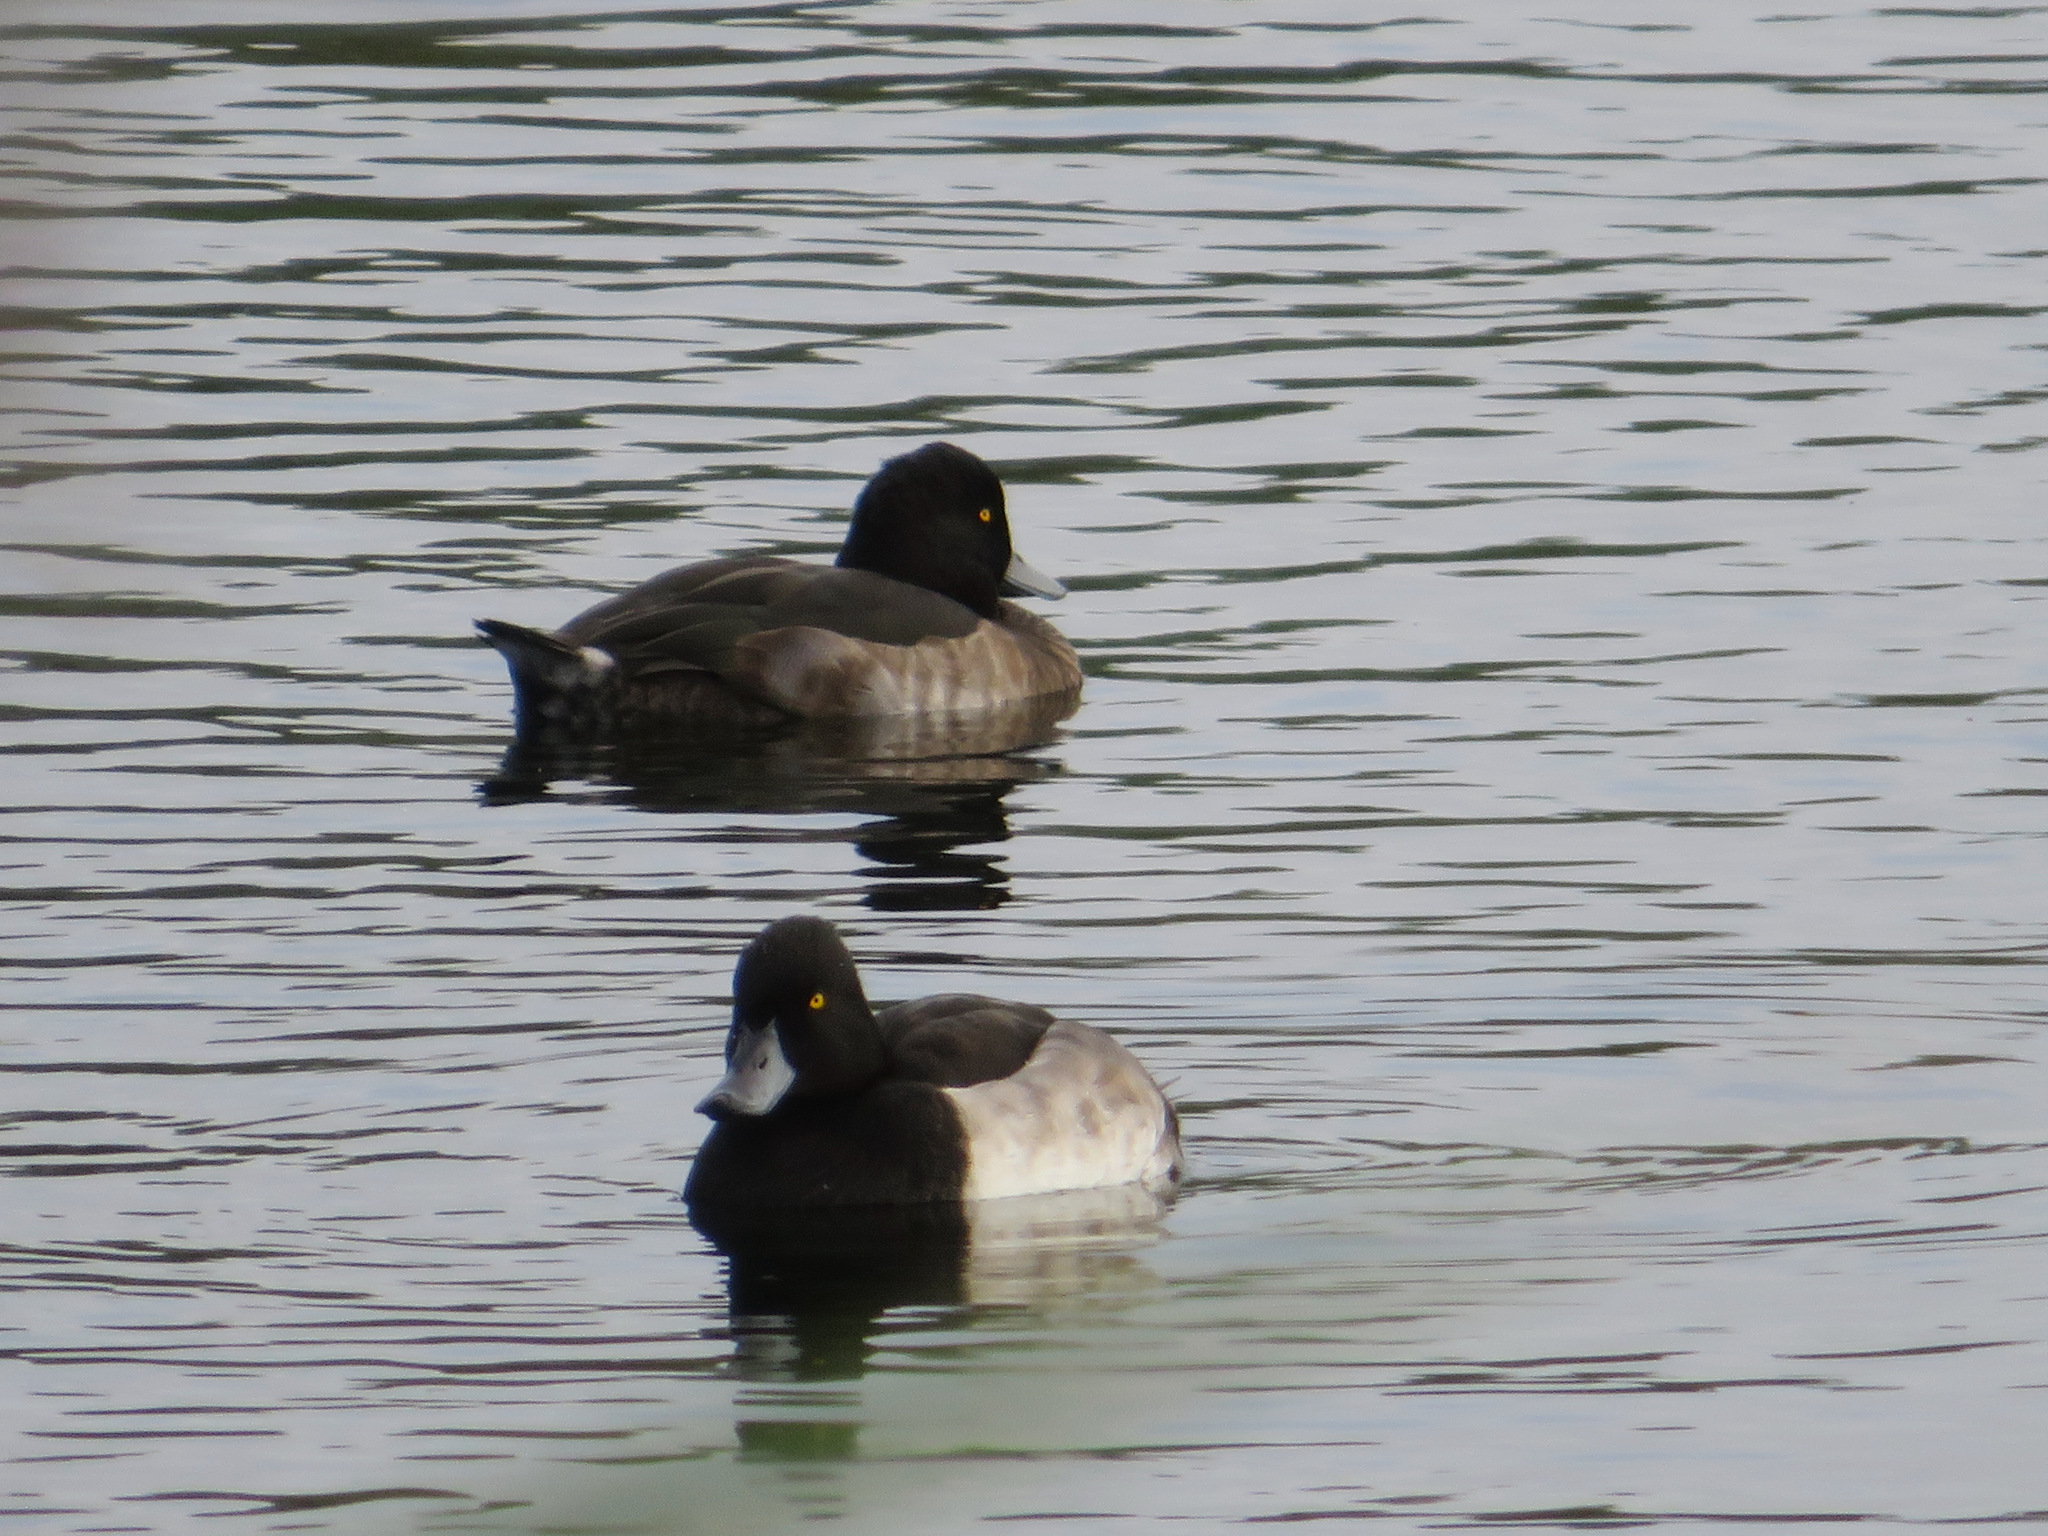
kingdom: Animalia
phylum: Chordata
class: Aves
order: Anseriformes
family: Anatidae
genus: Aythya
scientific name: Aythya fuligula
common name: Tufted duck
